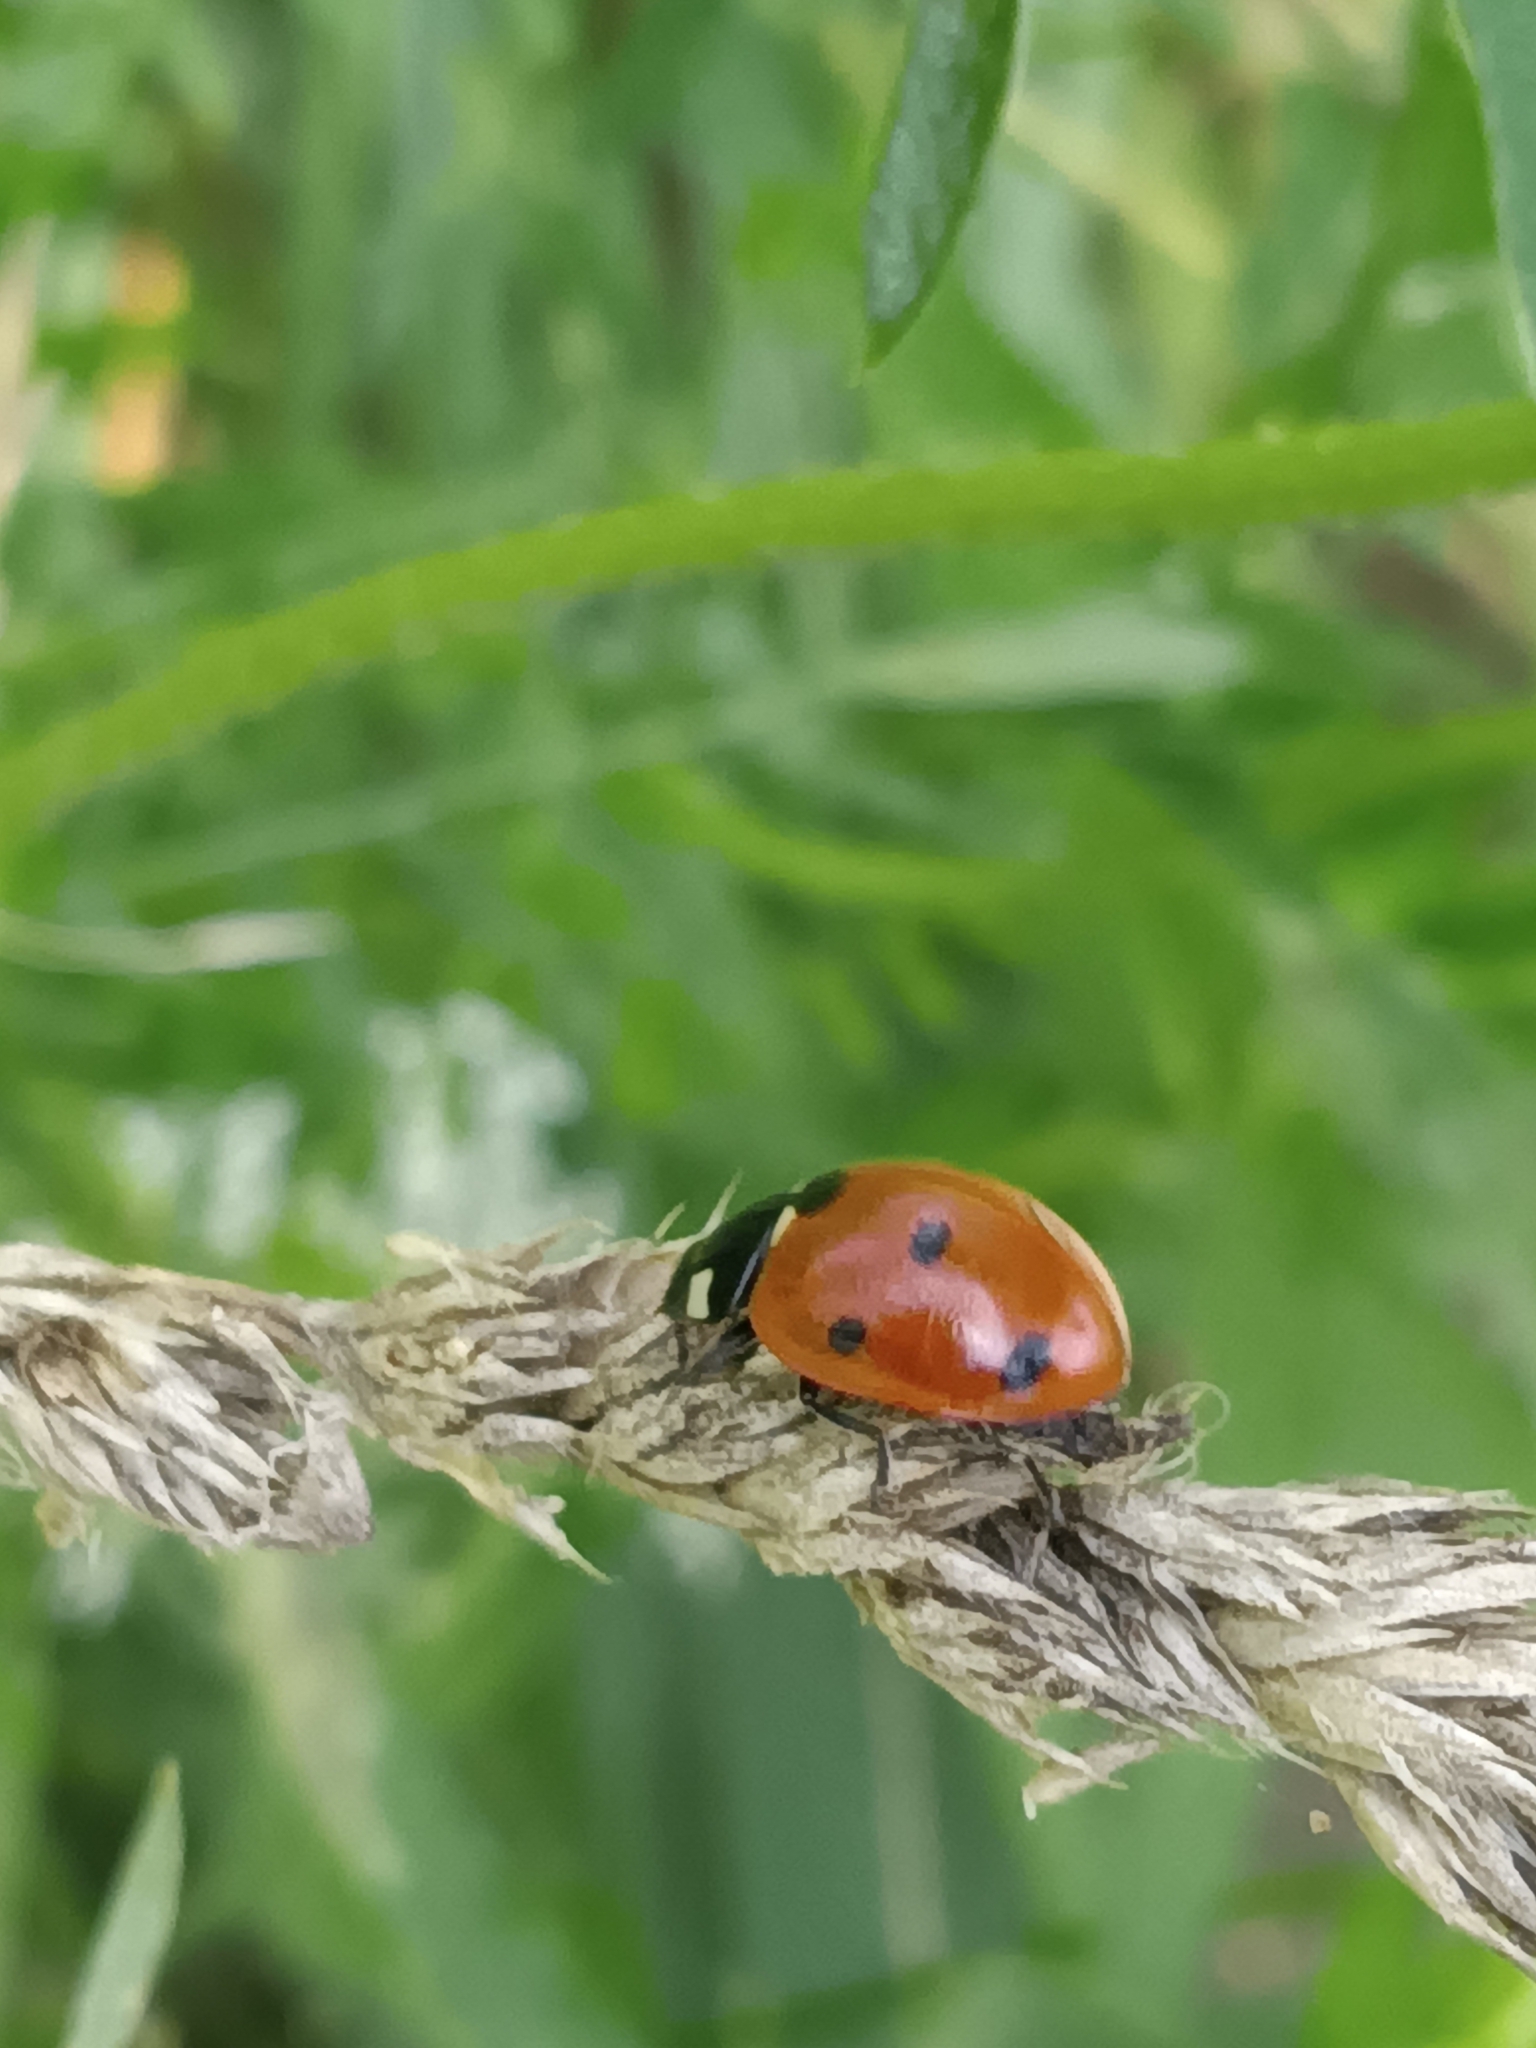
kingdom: Animalia
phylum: Arthropoda
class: Insecta
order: Coleoptera
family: Coccinellidae
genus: Coccinella
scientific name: Coccinella septempunctata
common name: Sevenspotted lady beetle
